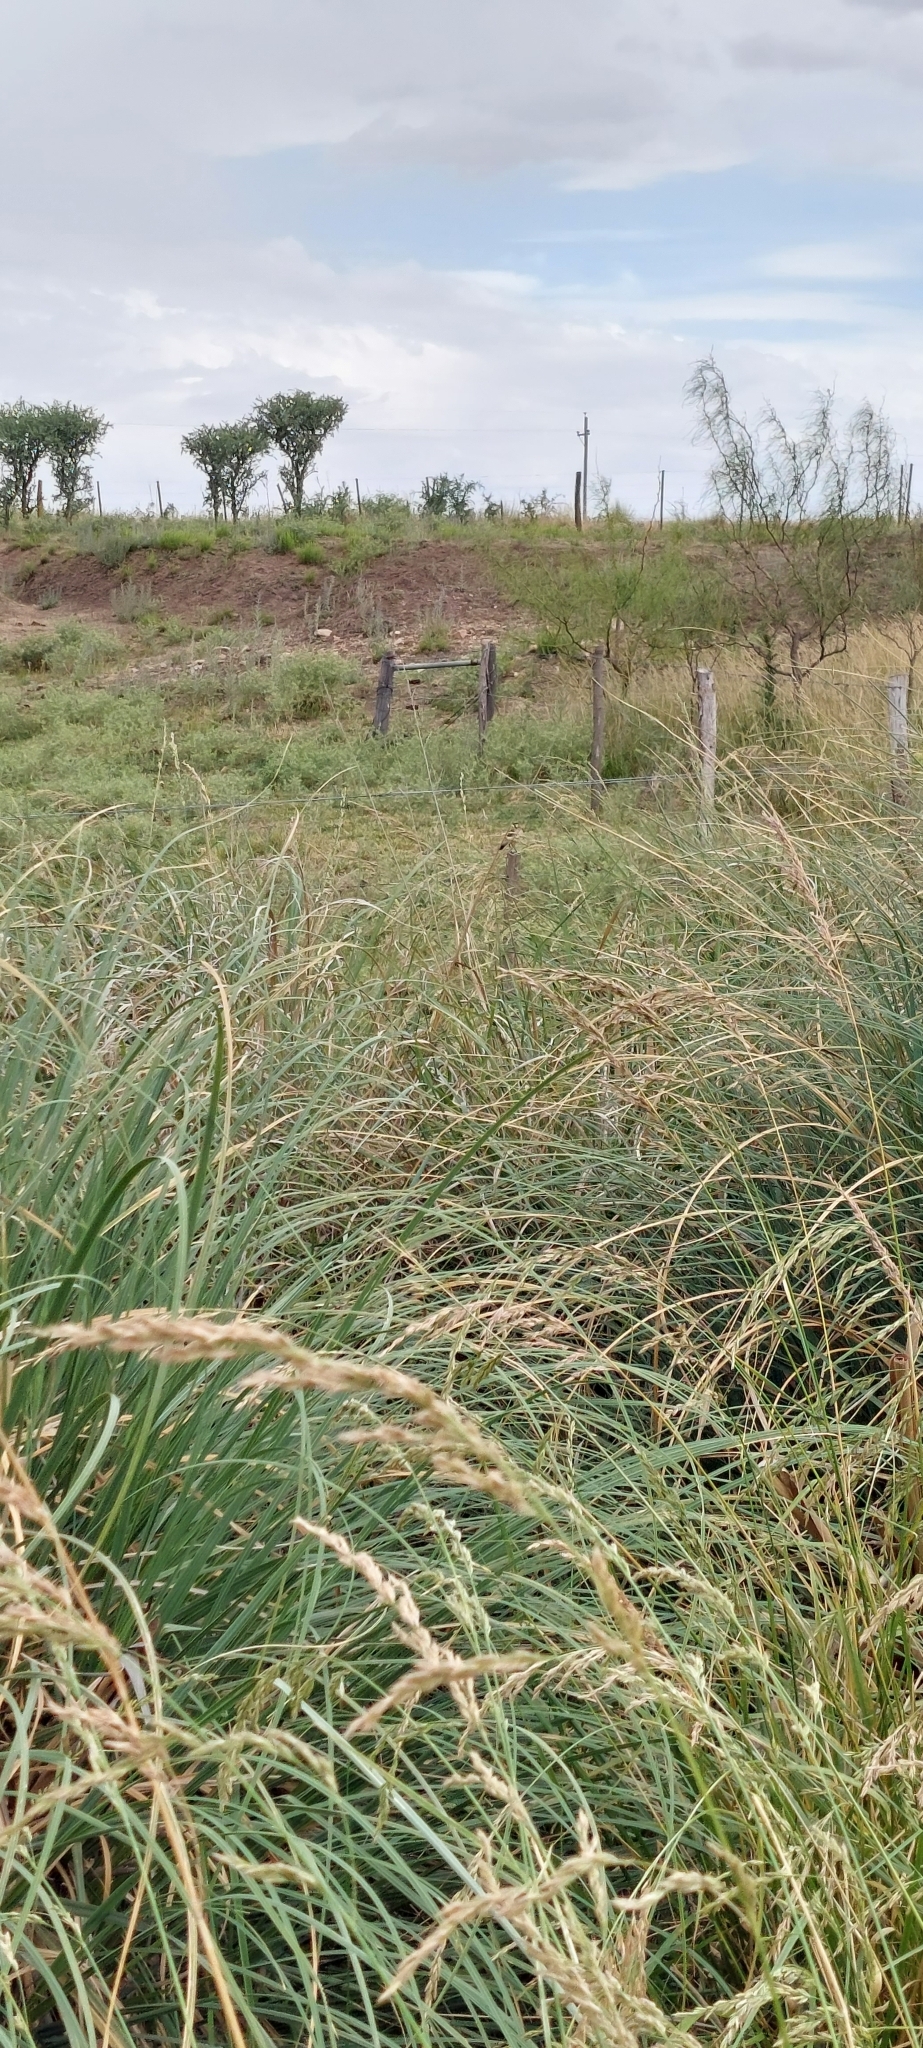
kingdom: Animalia
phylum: Chordata
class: Aves
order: Passeriformes
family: Tyrannidae
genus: Hymenops
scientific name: Hymenops perspicillatus
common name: Spectacled tyrant
